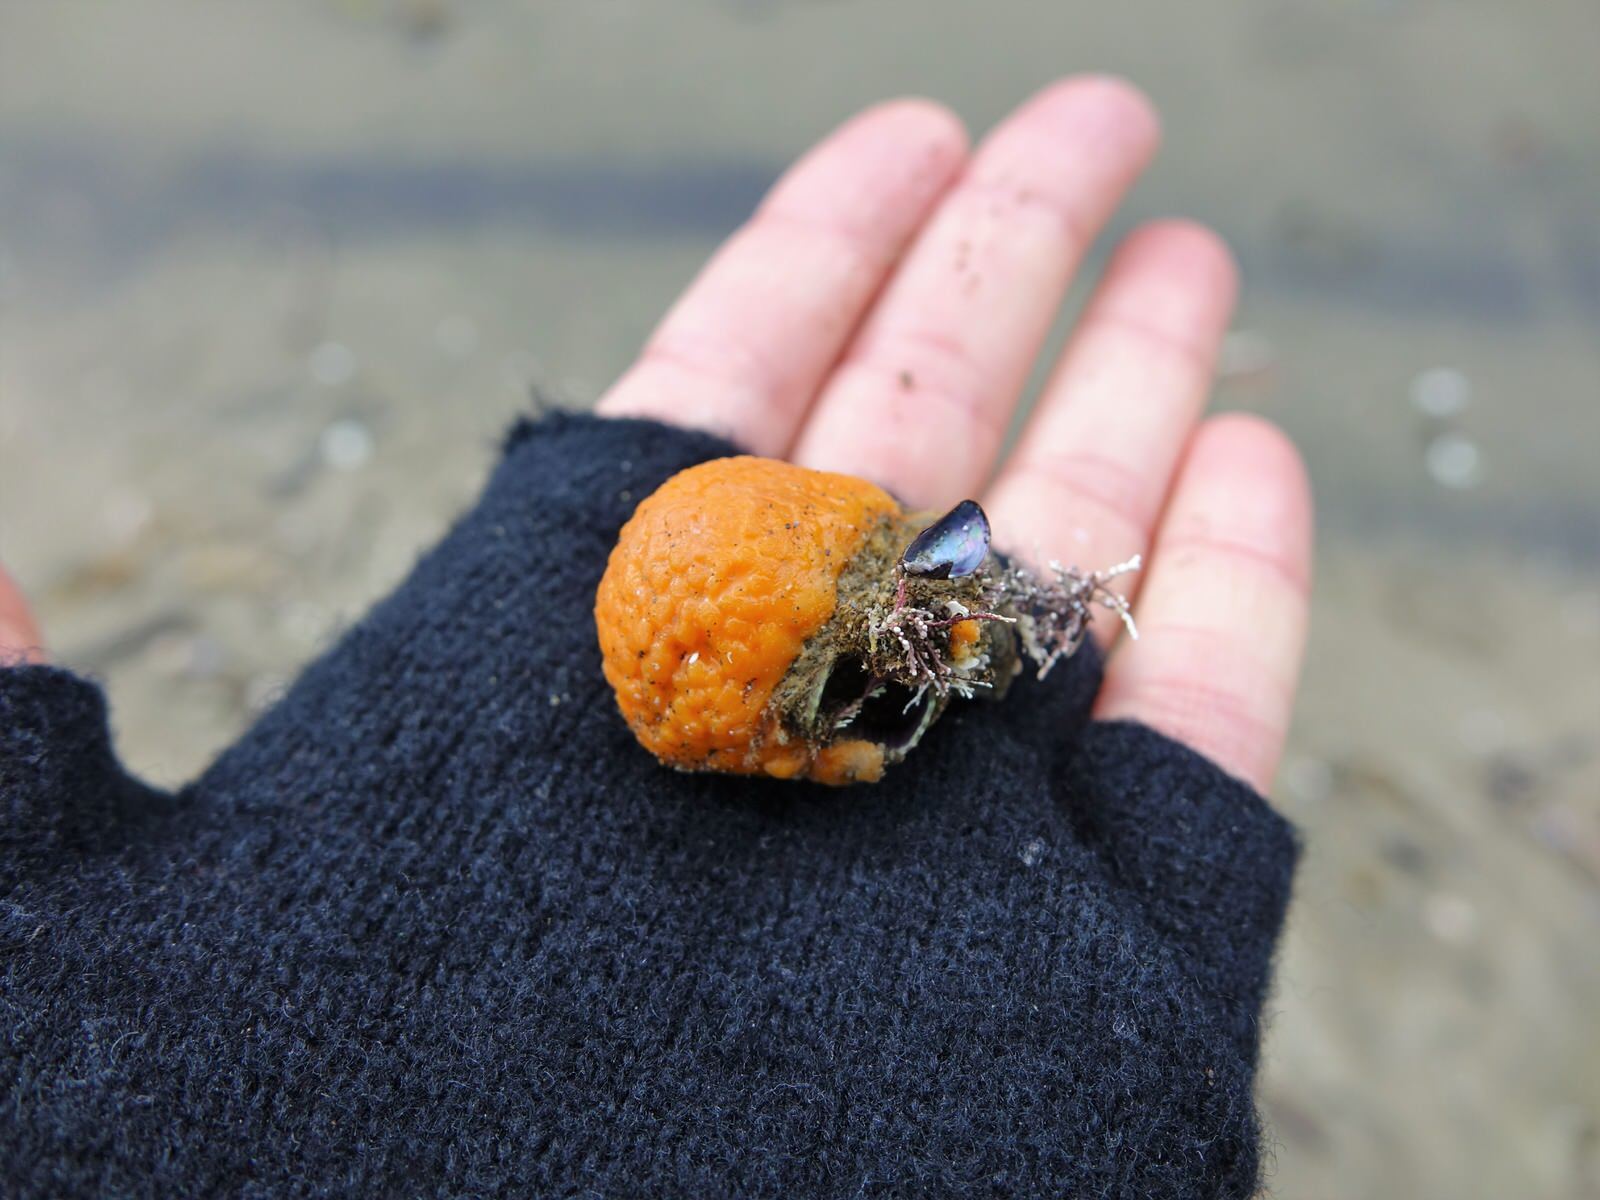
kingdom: Animalia
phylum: Porifera
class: Demospongiae
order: Tethyida
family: Tethyidae
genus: Tethya
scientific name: Tethya burtoni
